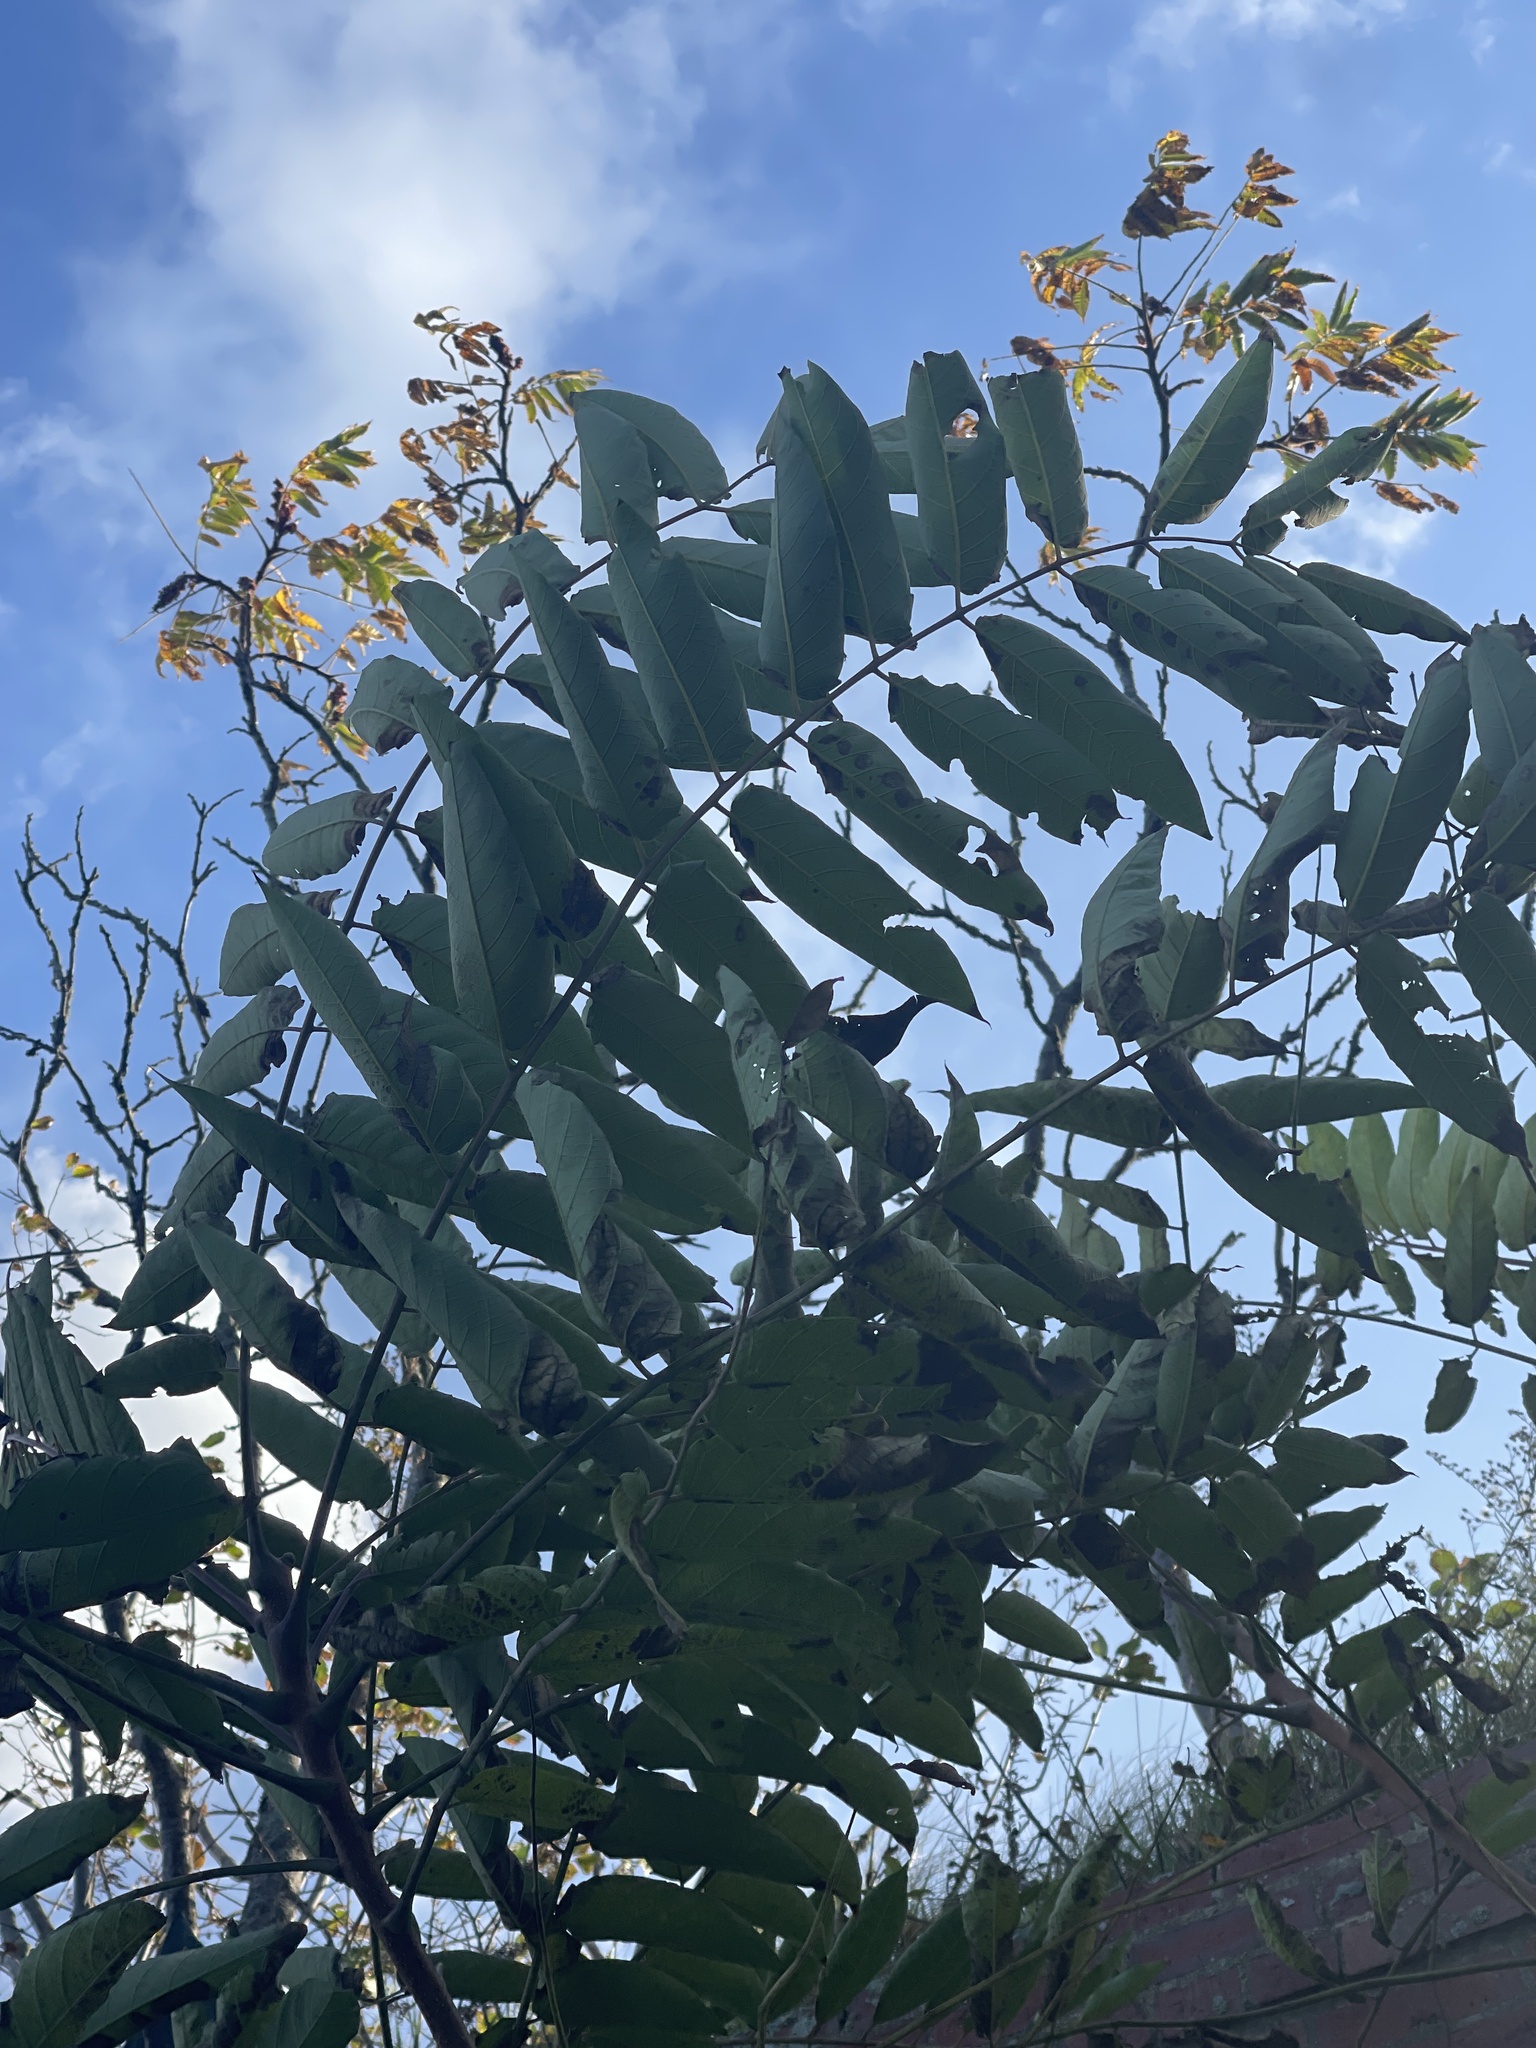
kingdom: Plantae
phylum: Tracheophyta
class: Magnoliopsida
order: Sapindales
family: Simaroubaceae
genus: Ailanthus
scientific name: Ailanthus altissima
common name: Tree-of-heaven
